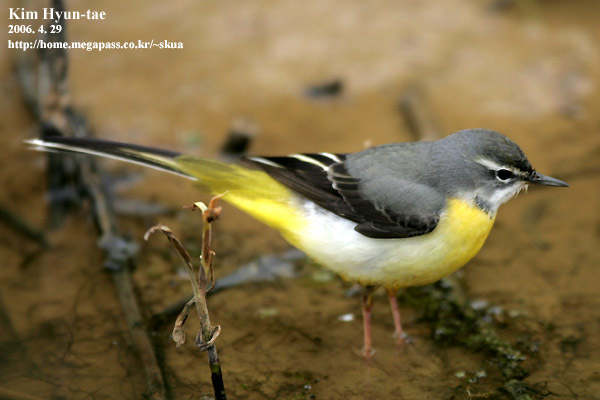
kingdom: Animalia
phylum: Chordata
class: Aves
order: Passeriformes
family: Motacillidae
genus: Motacilla
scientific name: Motacilla cinerea
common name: Grey wagtail
